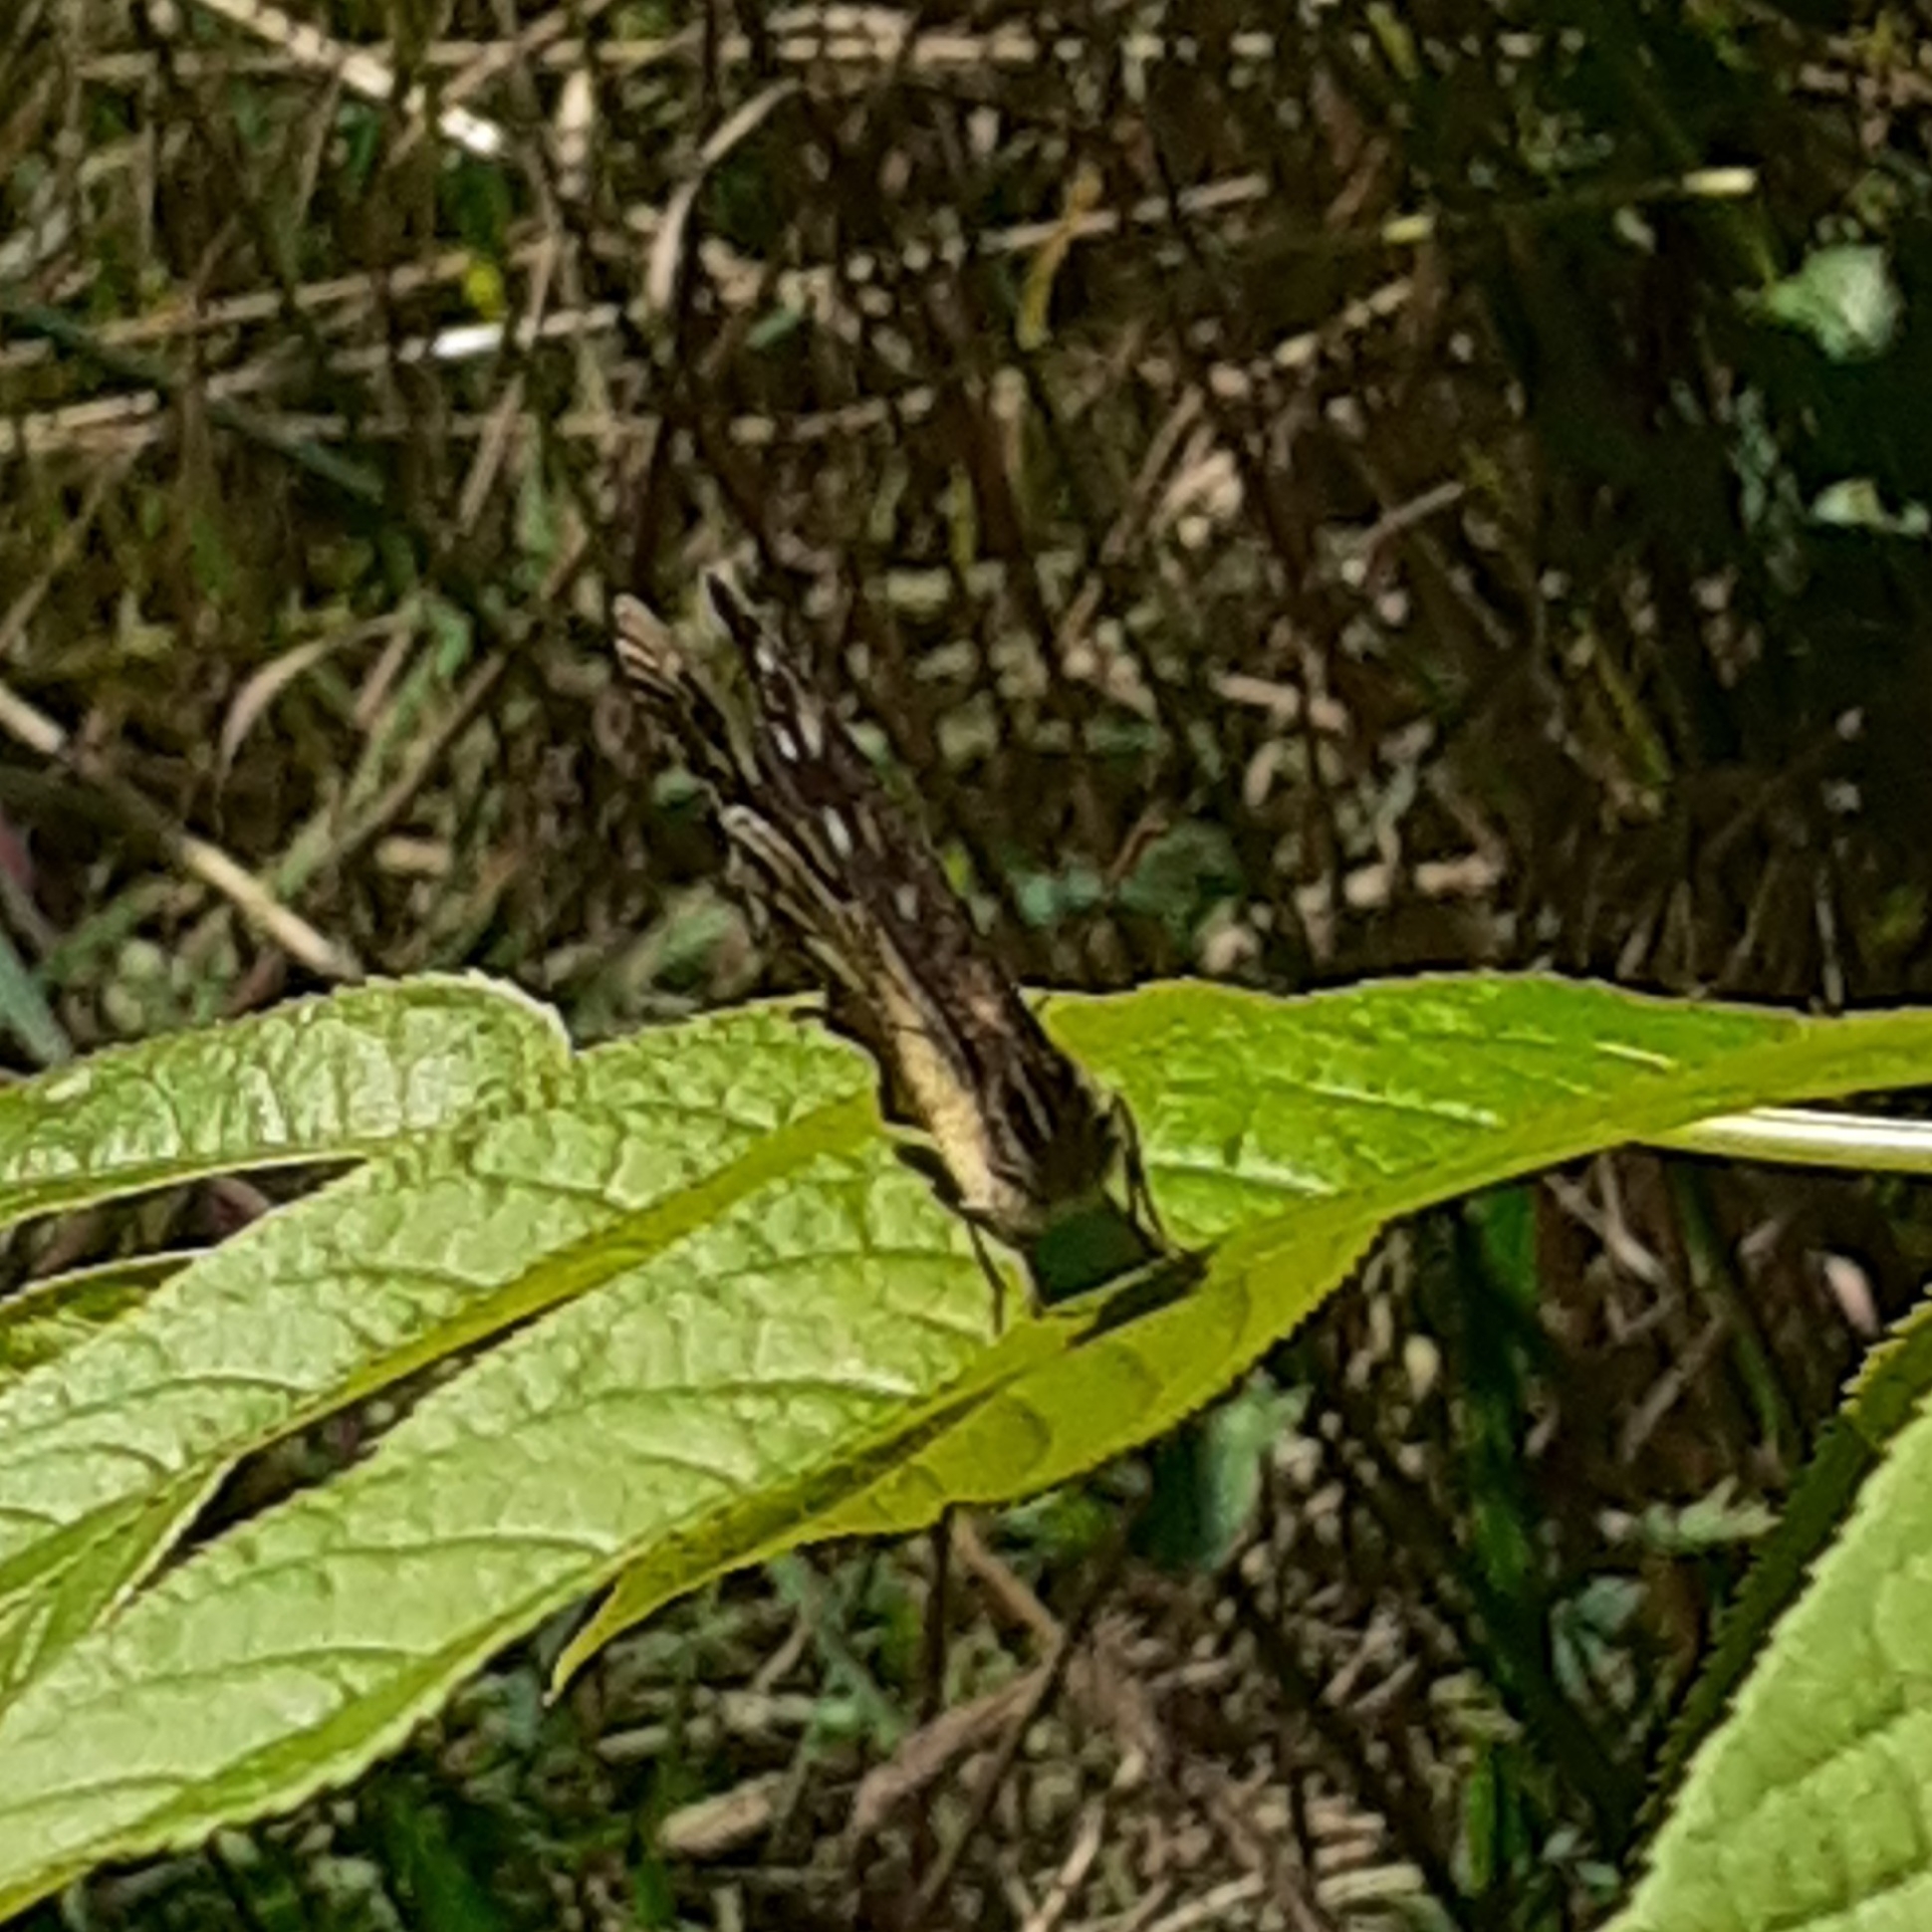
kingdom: Animalia
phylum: Arthropoda
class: Insecta
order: Lepidoptera
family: Nymphalidae
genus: Pararge
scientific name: Pararge aegeria
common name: Speckled wood
